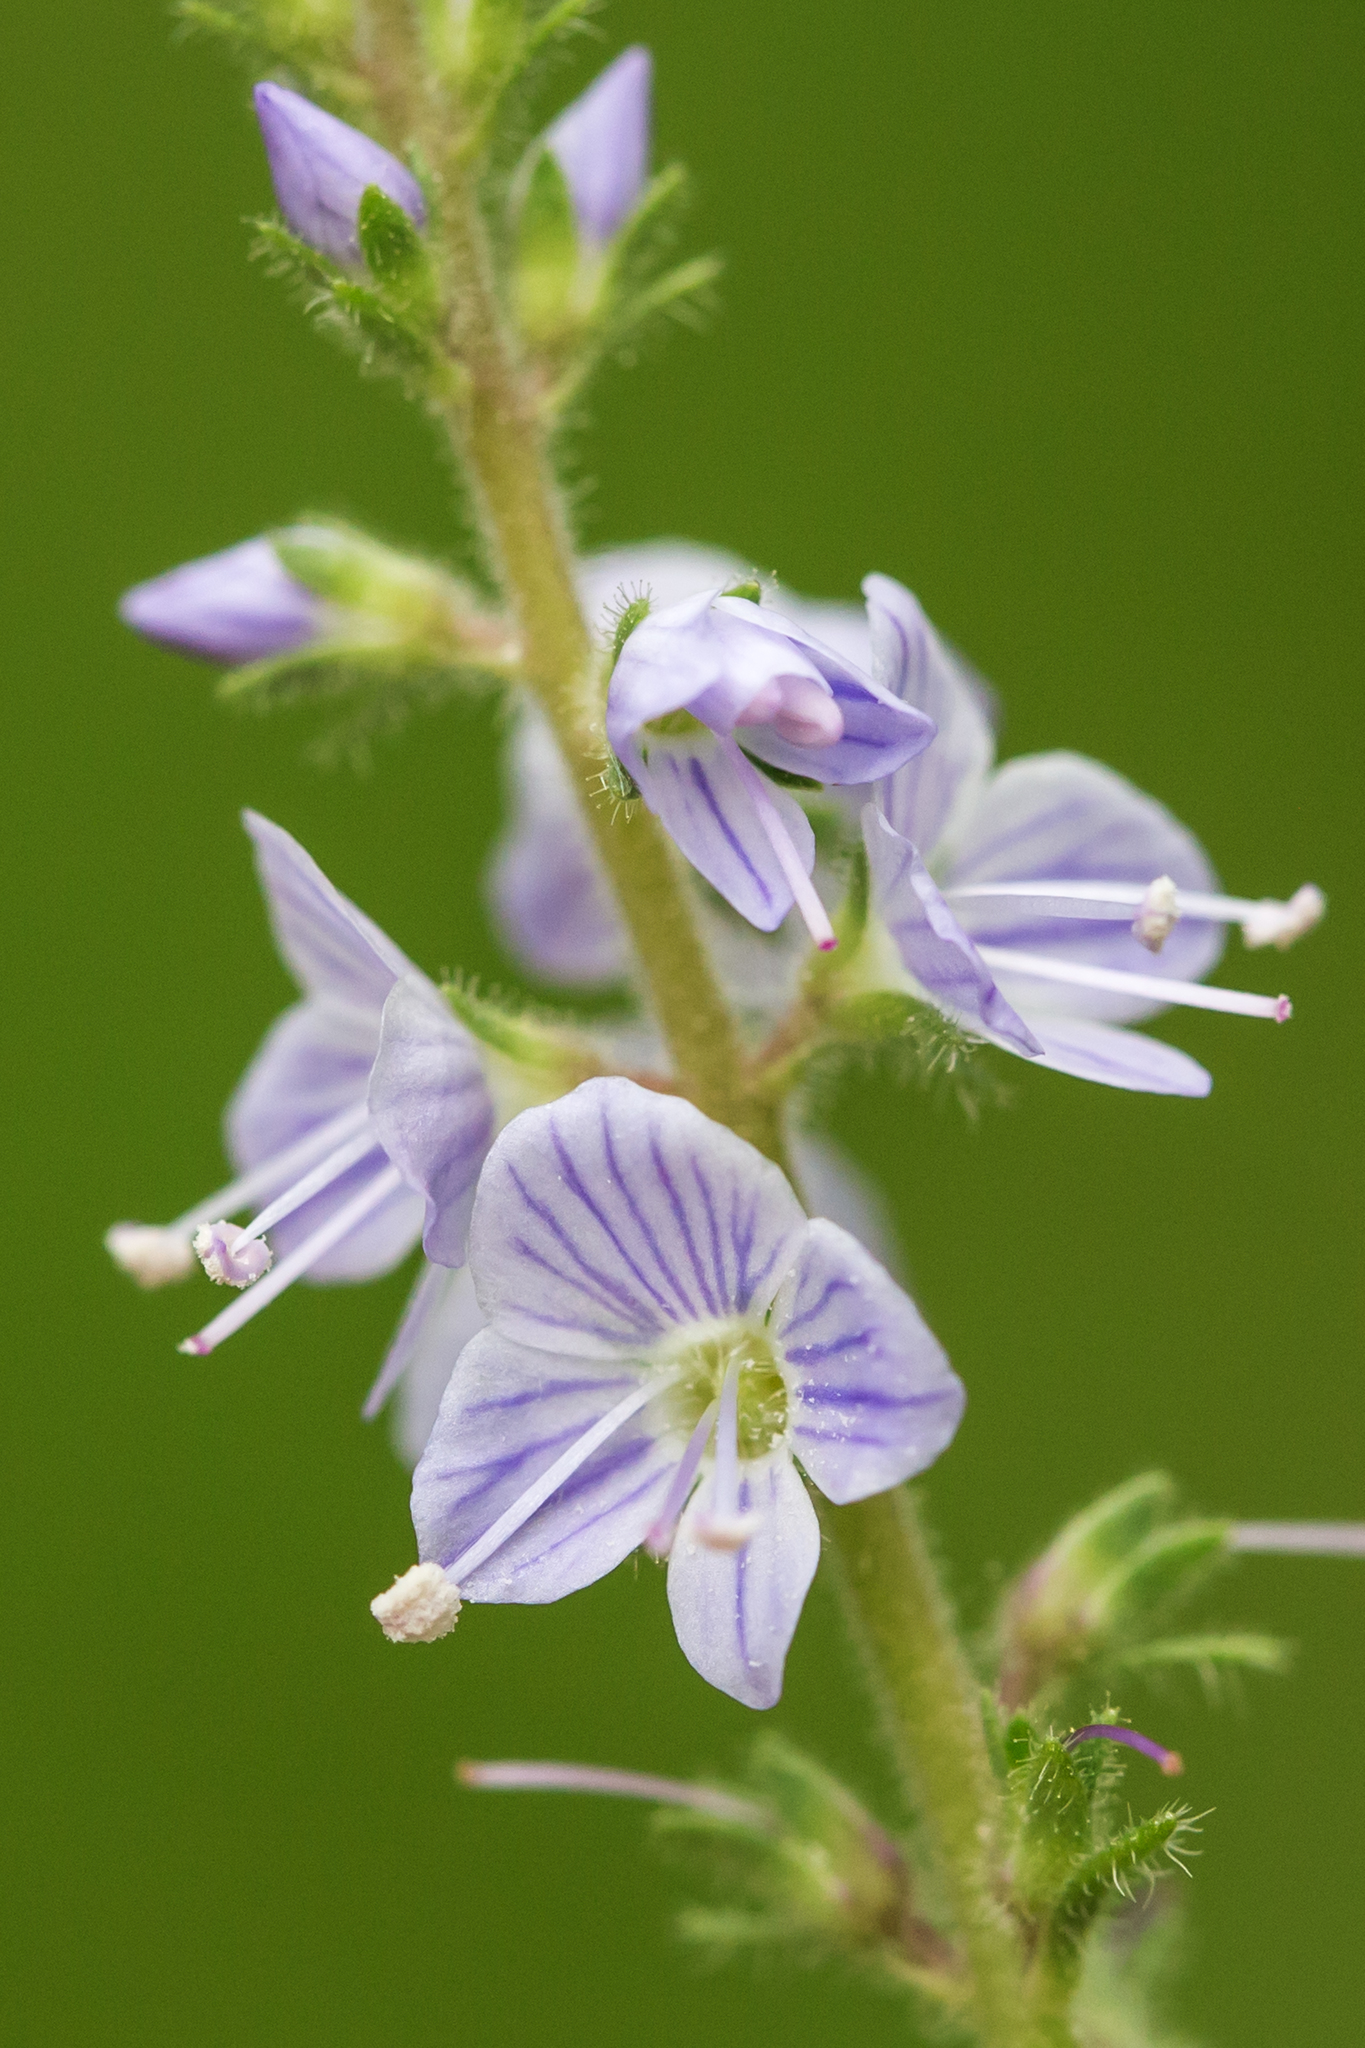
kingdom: Plantae
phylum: Tracheophyta
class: Magnoliopsida
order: Lamiales
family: Plantaginaceae
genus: Veronica
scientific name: Veronica officinalis
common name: Common speedwell
